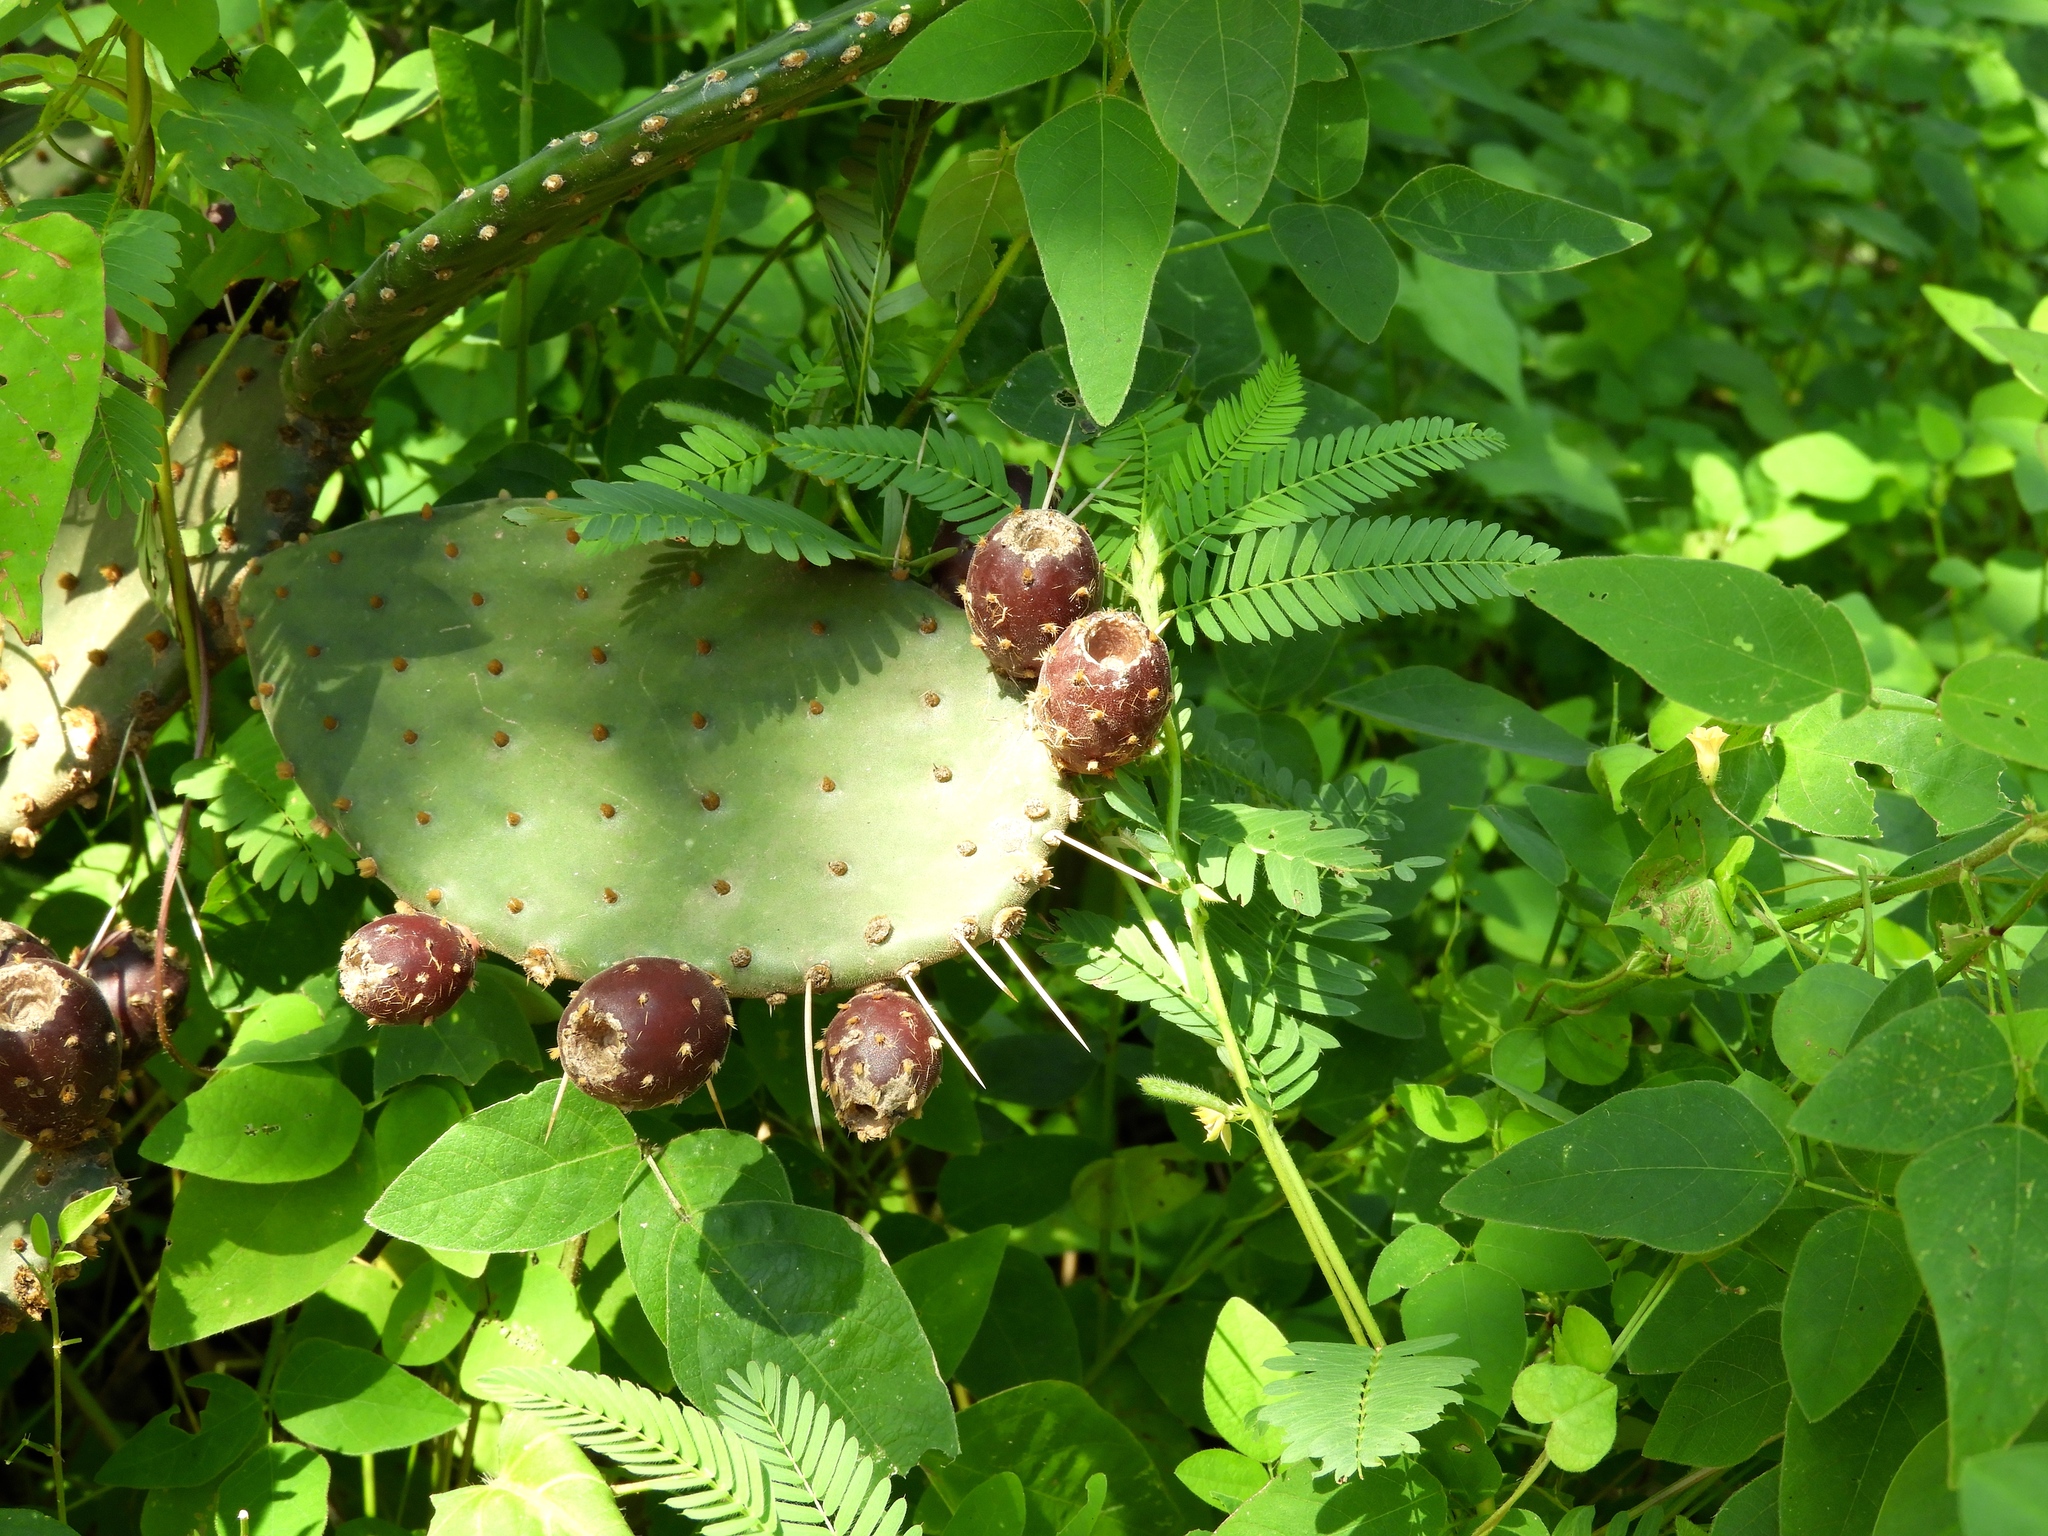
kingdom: Plantae
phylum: Tracheophyta
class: Magnoliopsida
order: Caryophyllales
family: Cactaceae
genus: Opuntia
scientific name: Opuntia decumbens
